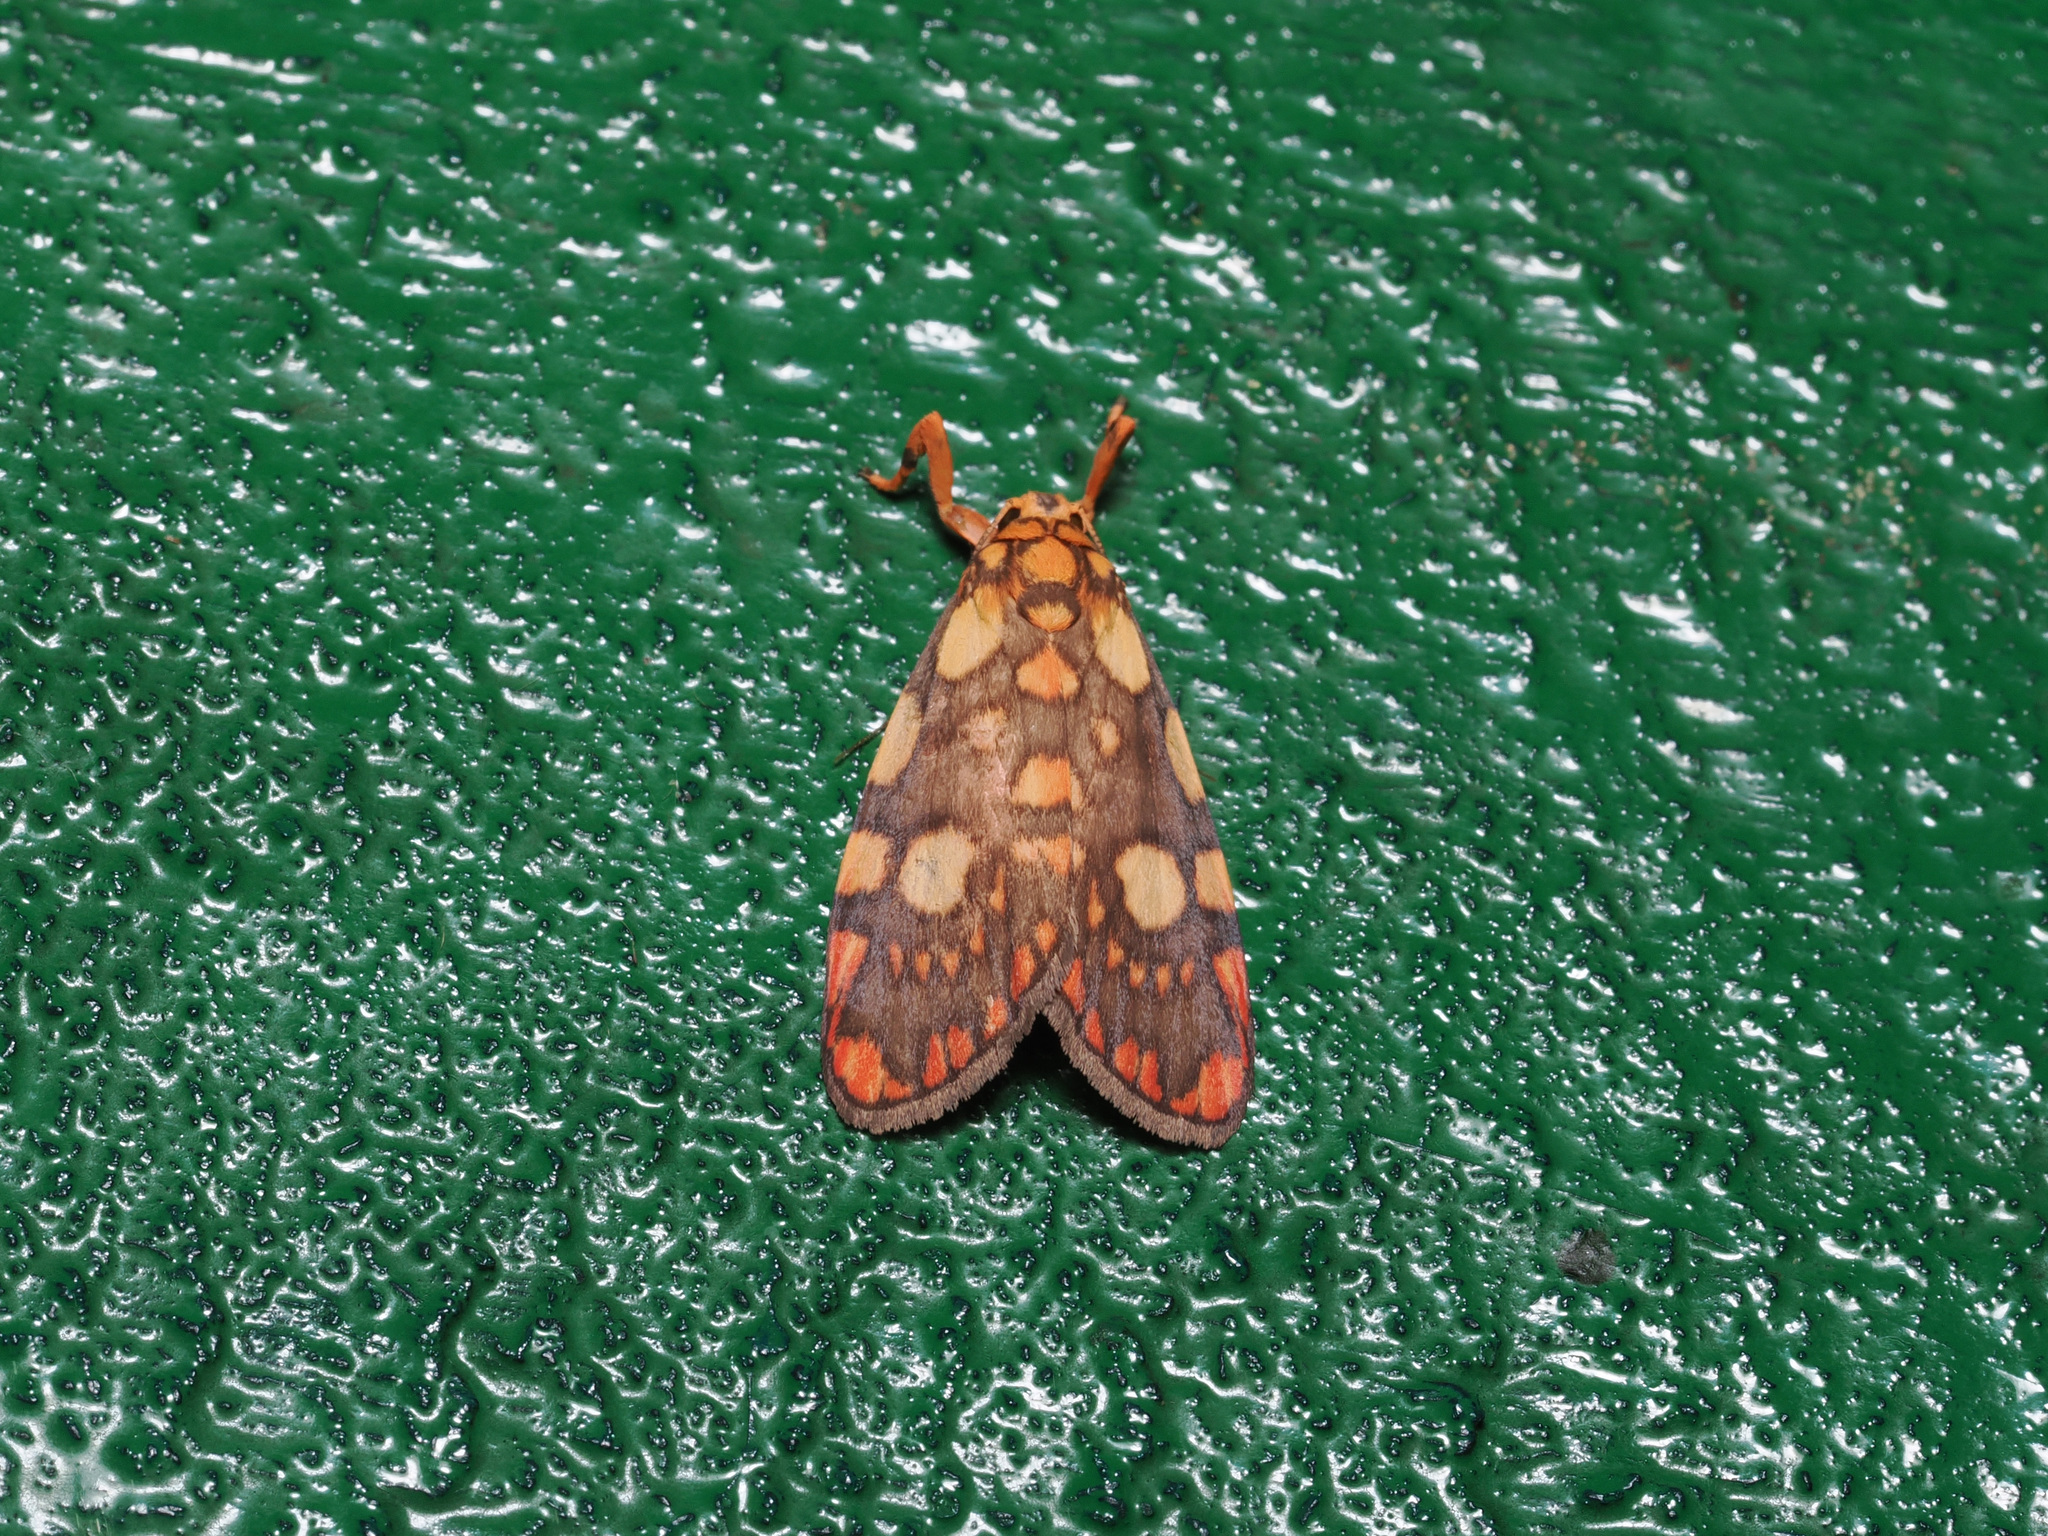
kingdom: Animalia
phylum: Arthropoda
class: Insecta
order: Lepidoptera
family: Erebidae
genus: Cyme
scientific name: Cyme reticulata
